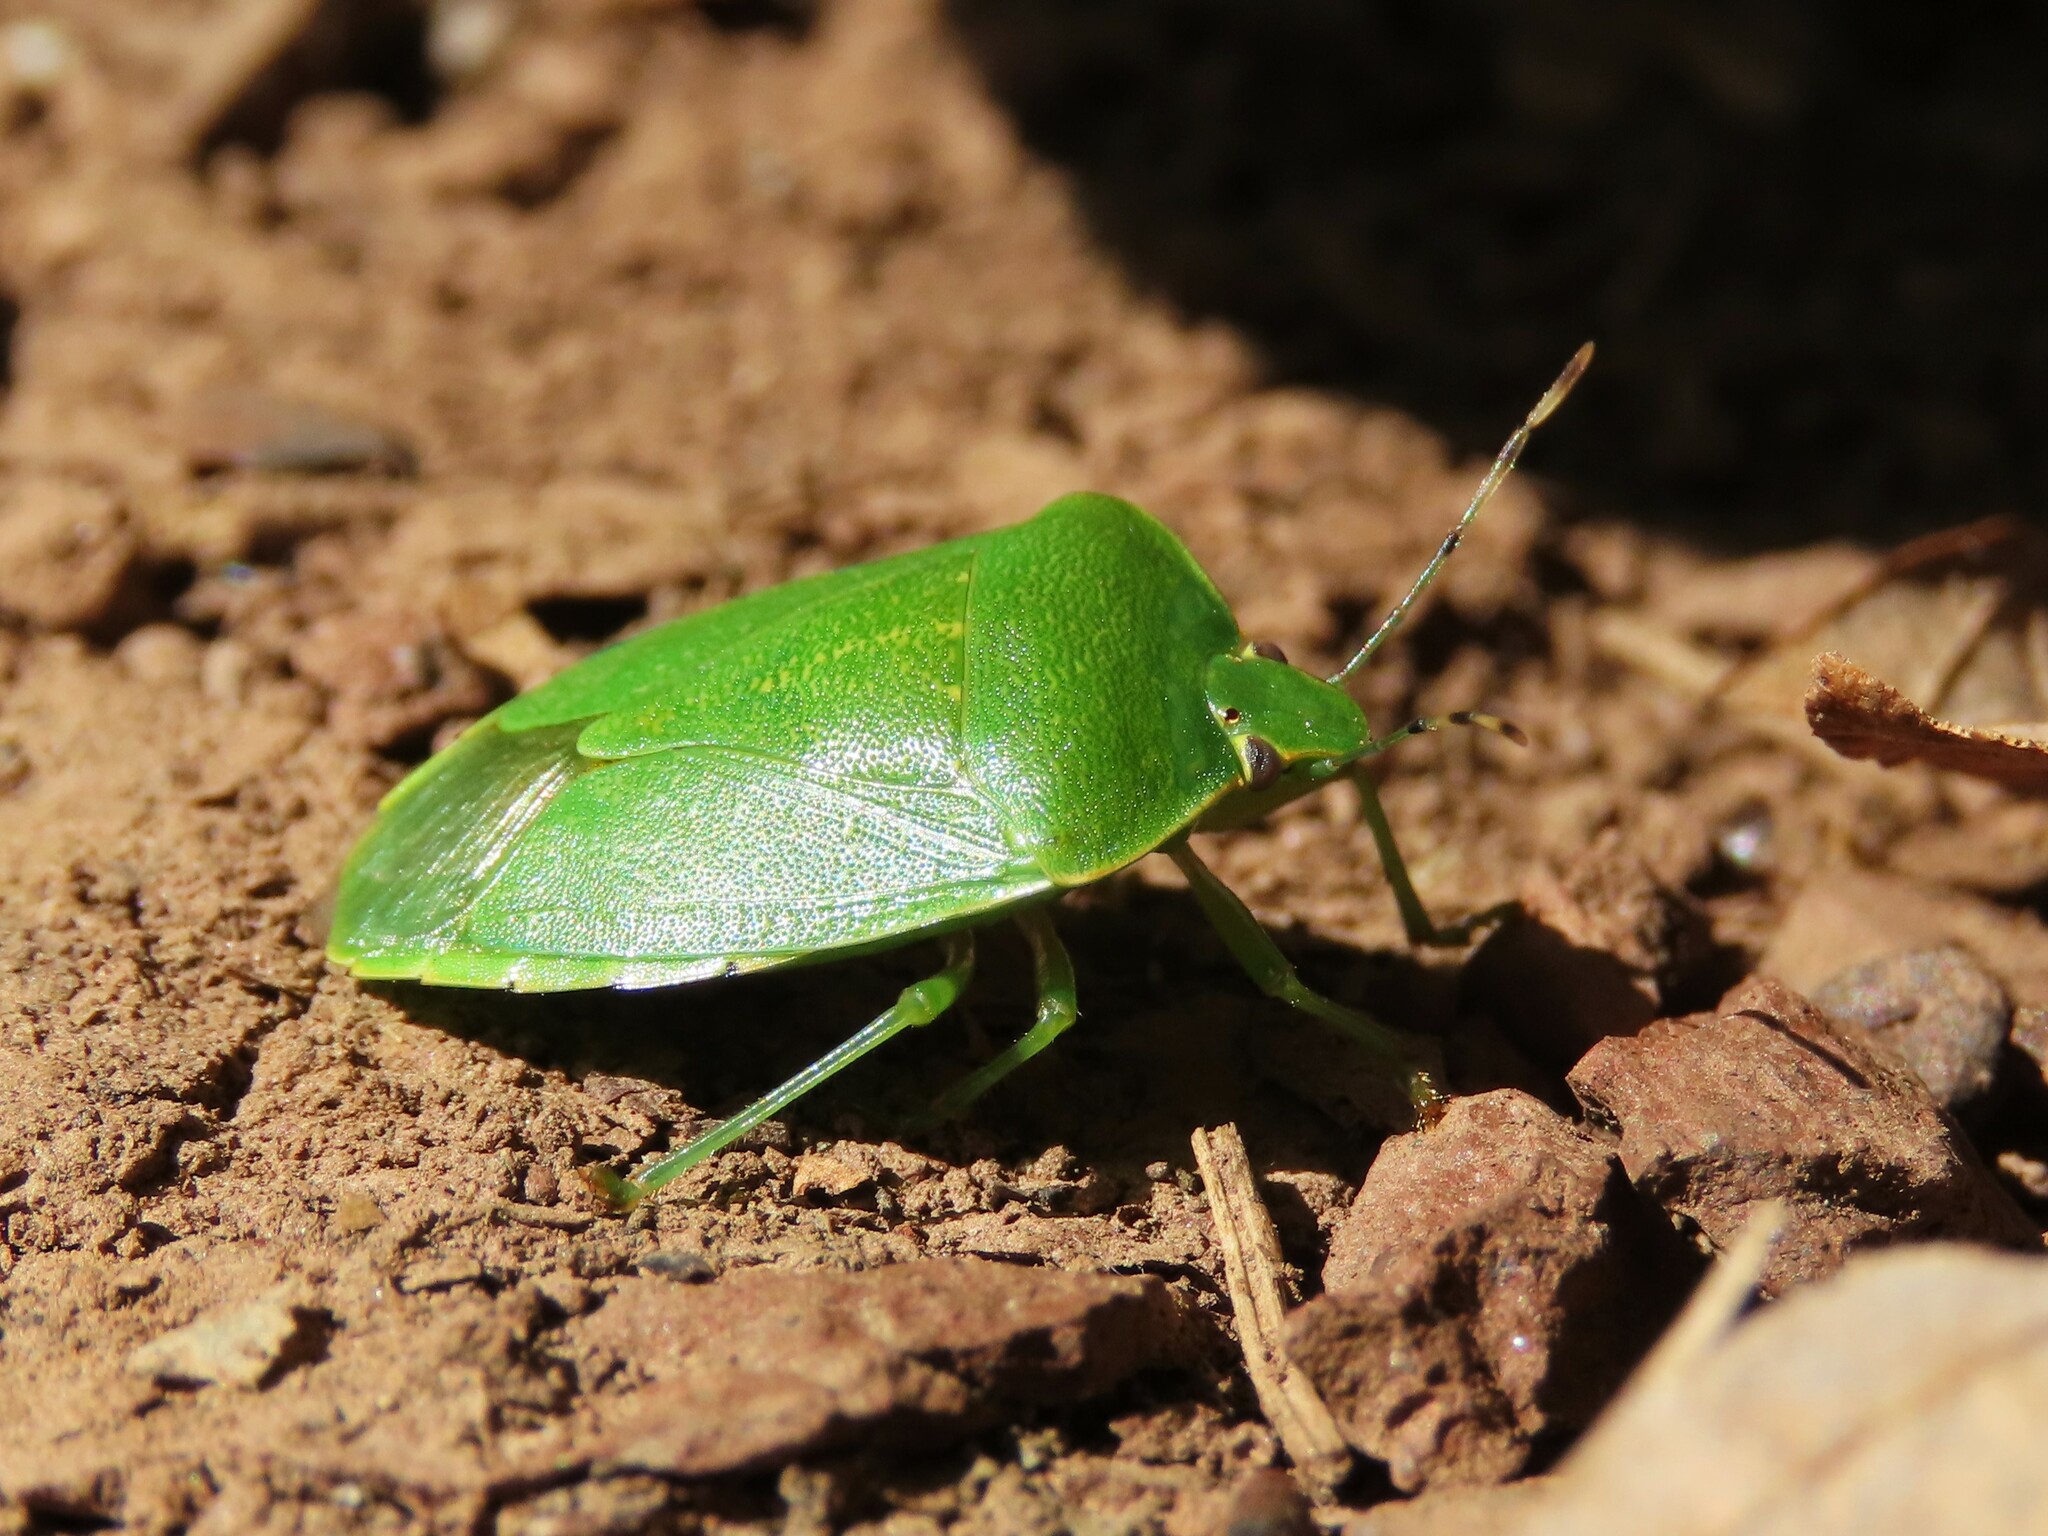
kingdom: Animalia
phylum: Arthropoda
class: Insecta
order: Hemiptera
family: Pentatomidae
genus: Chinavia
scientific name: Chinavia hilaris
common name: Green stink bug
